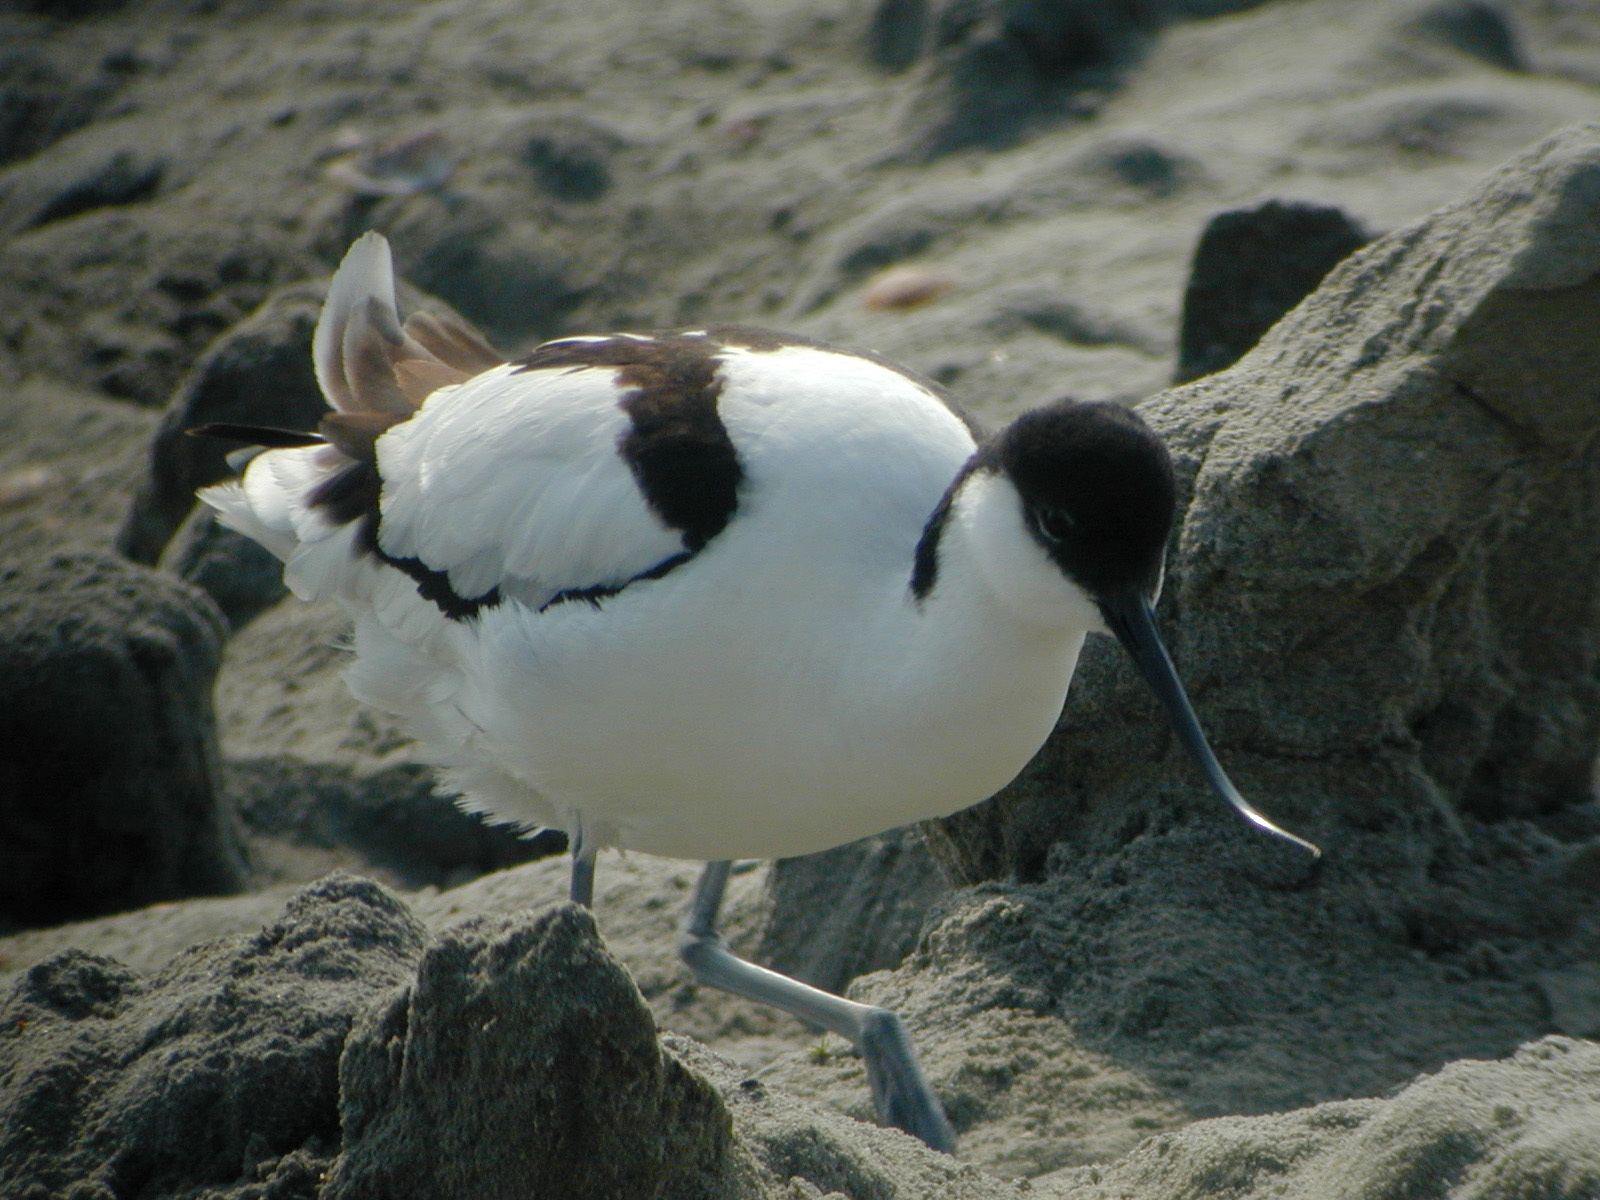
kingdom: Animalia
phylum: Chordata
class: Aves
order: Charadriiformes
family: Recurvirostridae
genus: Recurvirostra
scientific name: Recurvirostra avosetta
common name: Pied avocet
